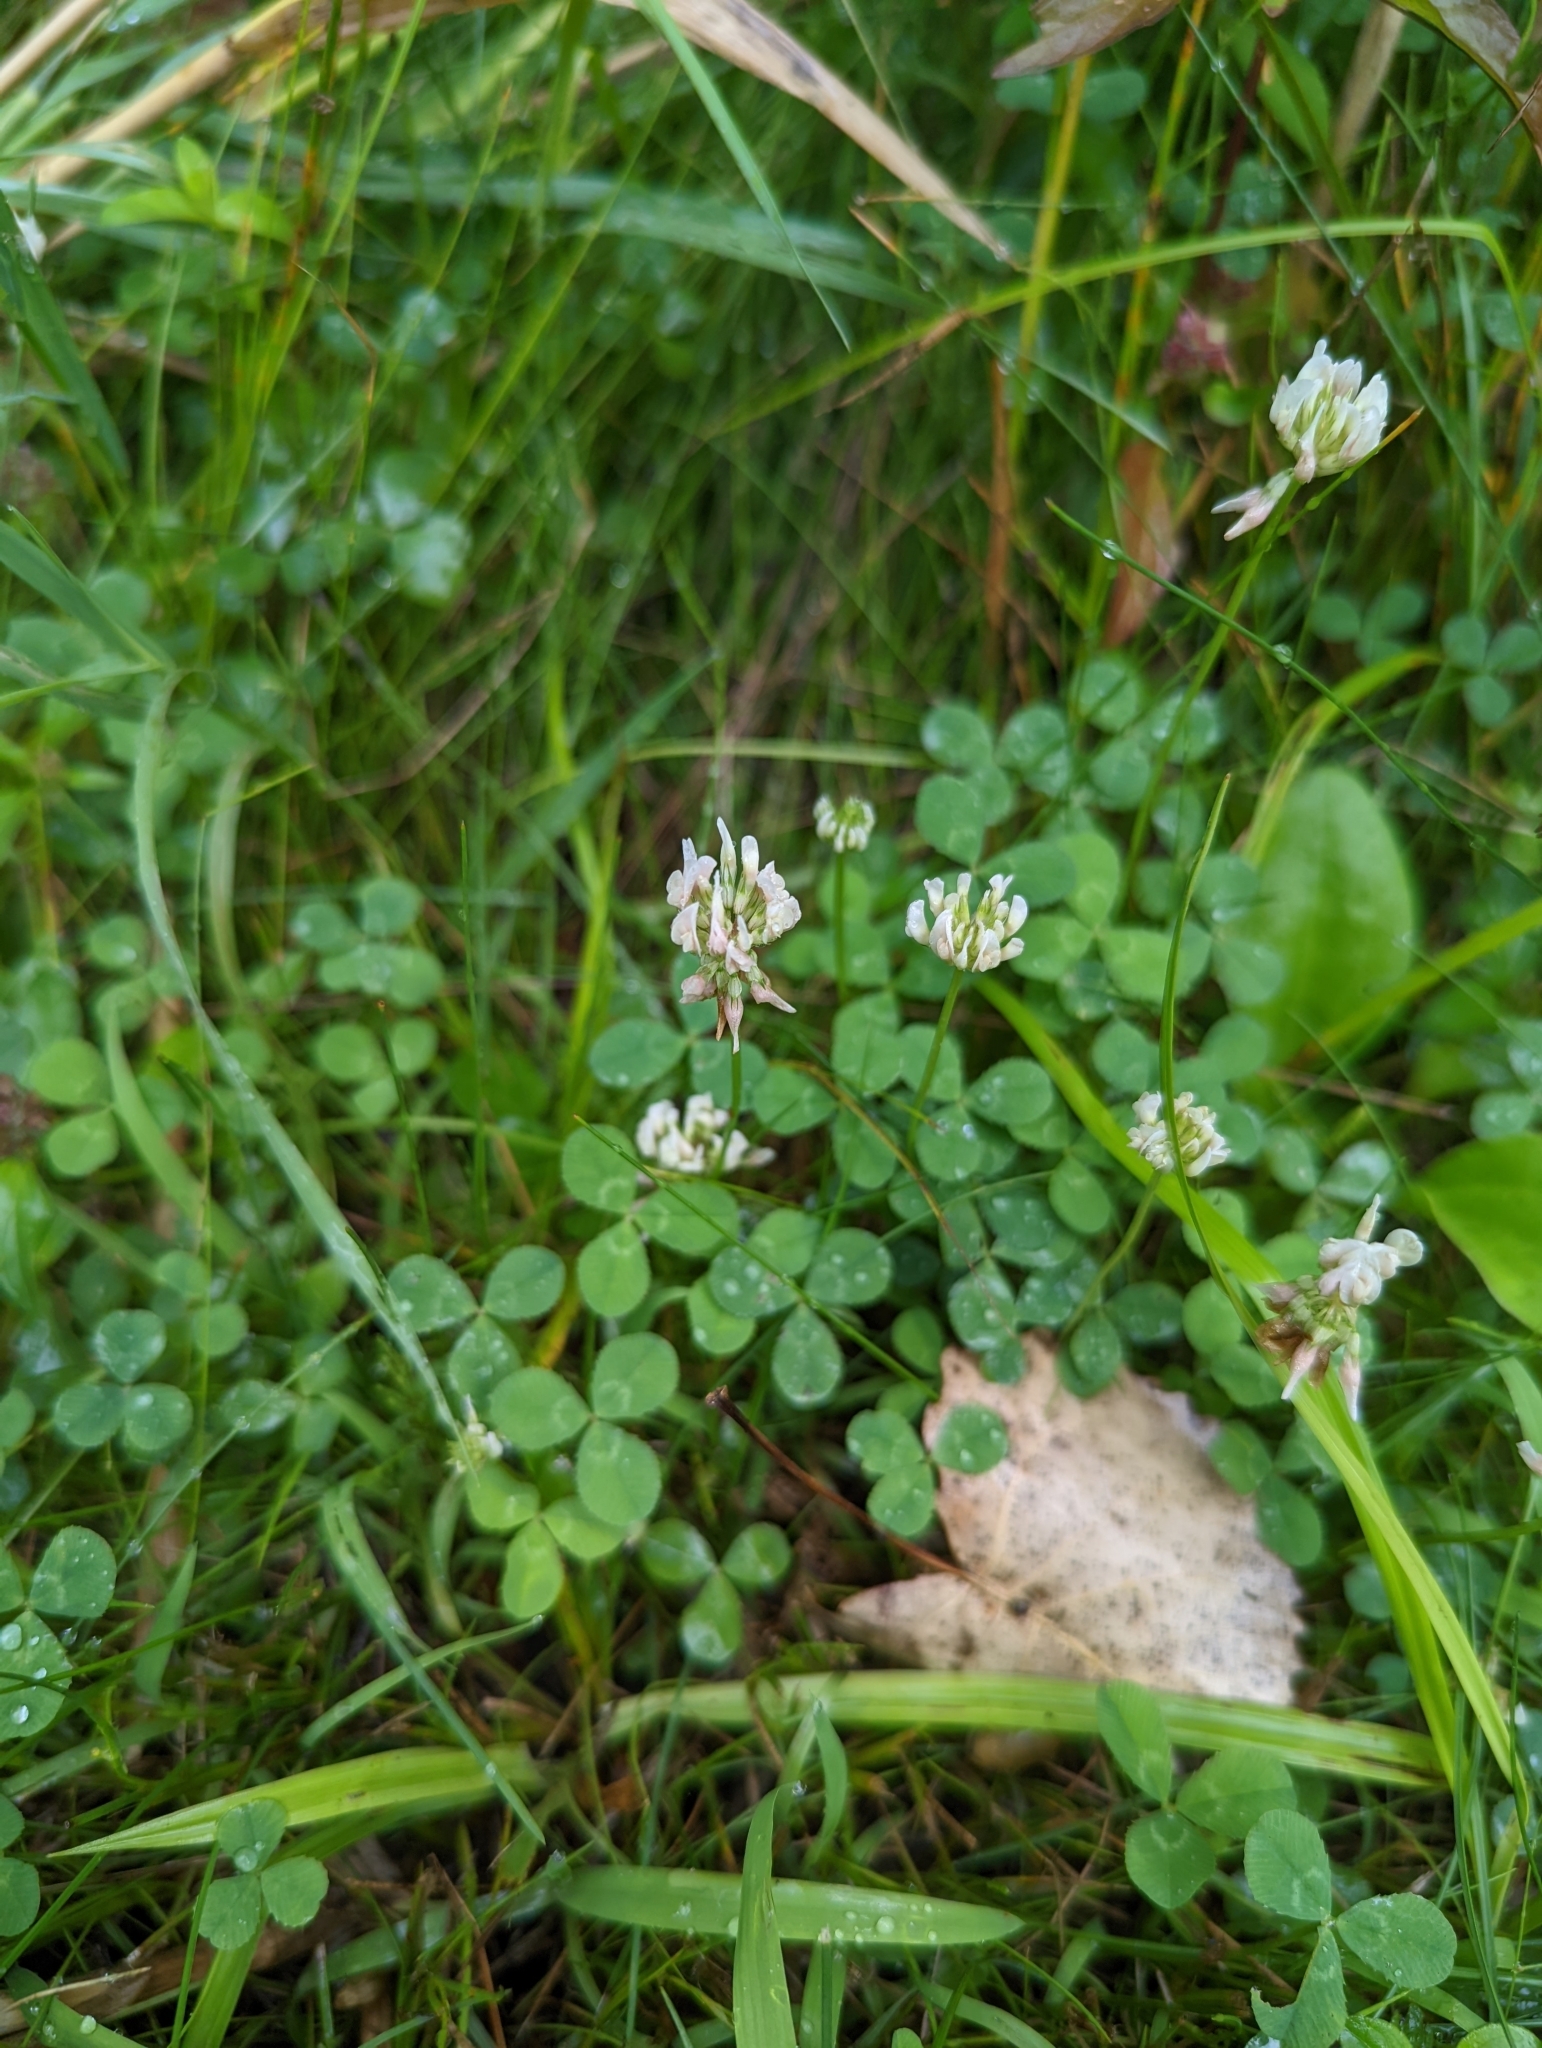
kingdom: Plantae
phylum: Tracheophyta
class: Magnoliopsida
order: Fabales
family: Fabaceae
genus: Trifolium
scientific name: Trifolium repens
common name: White clover
